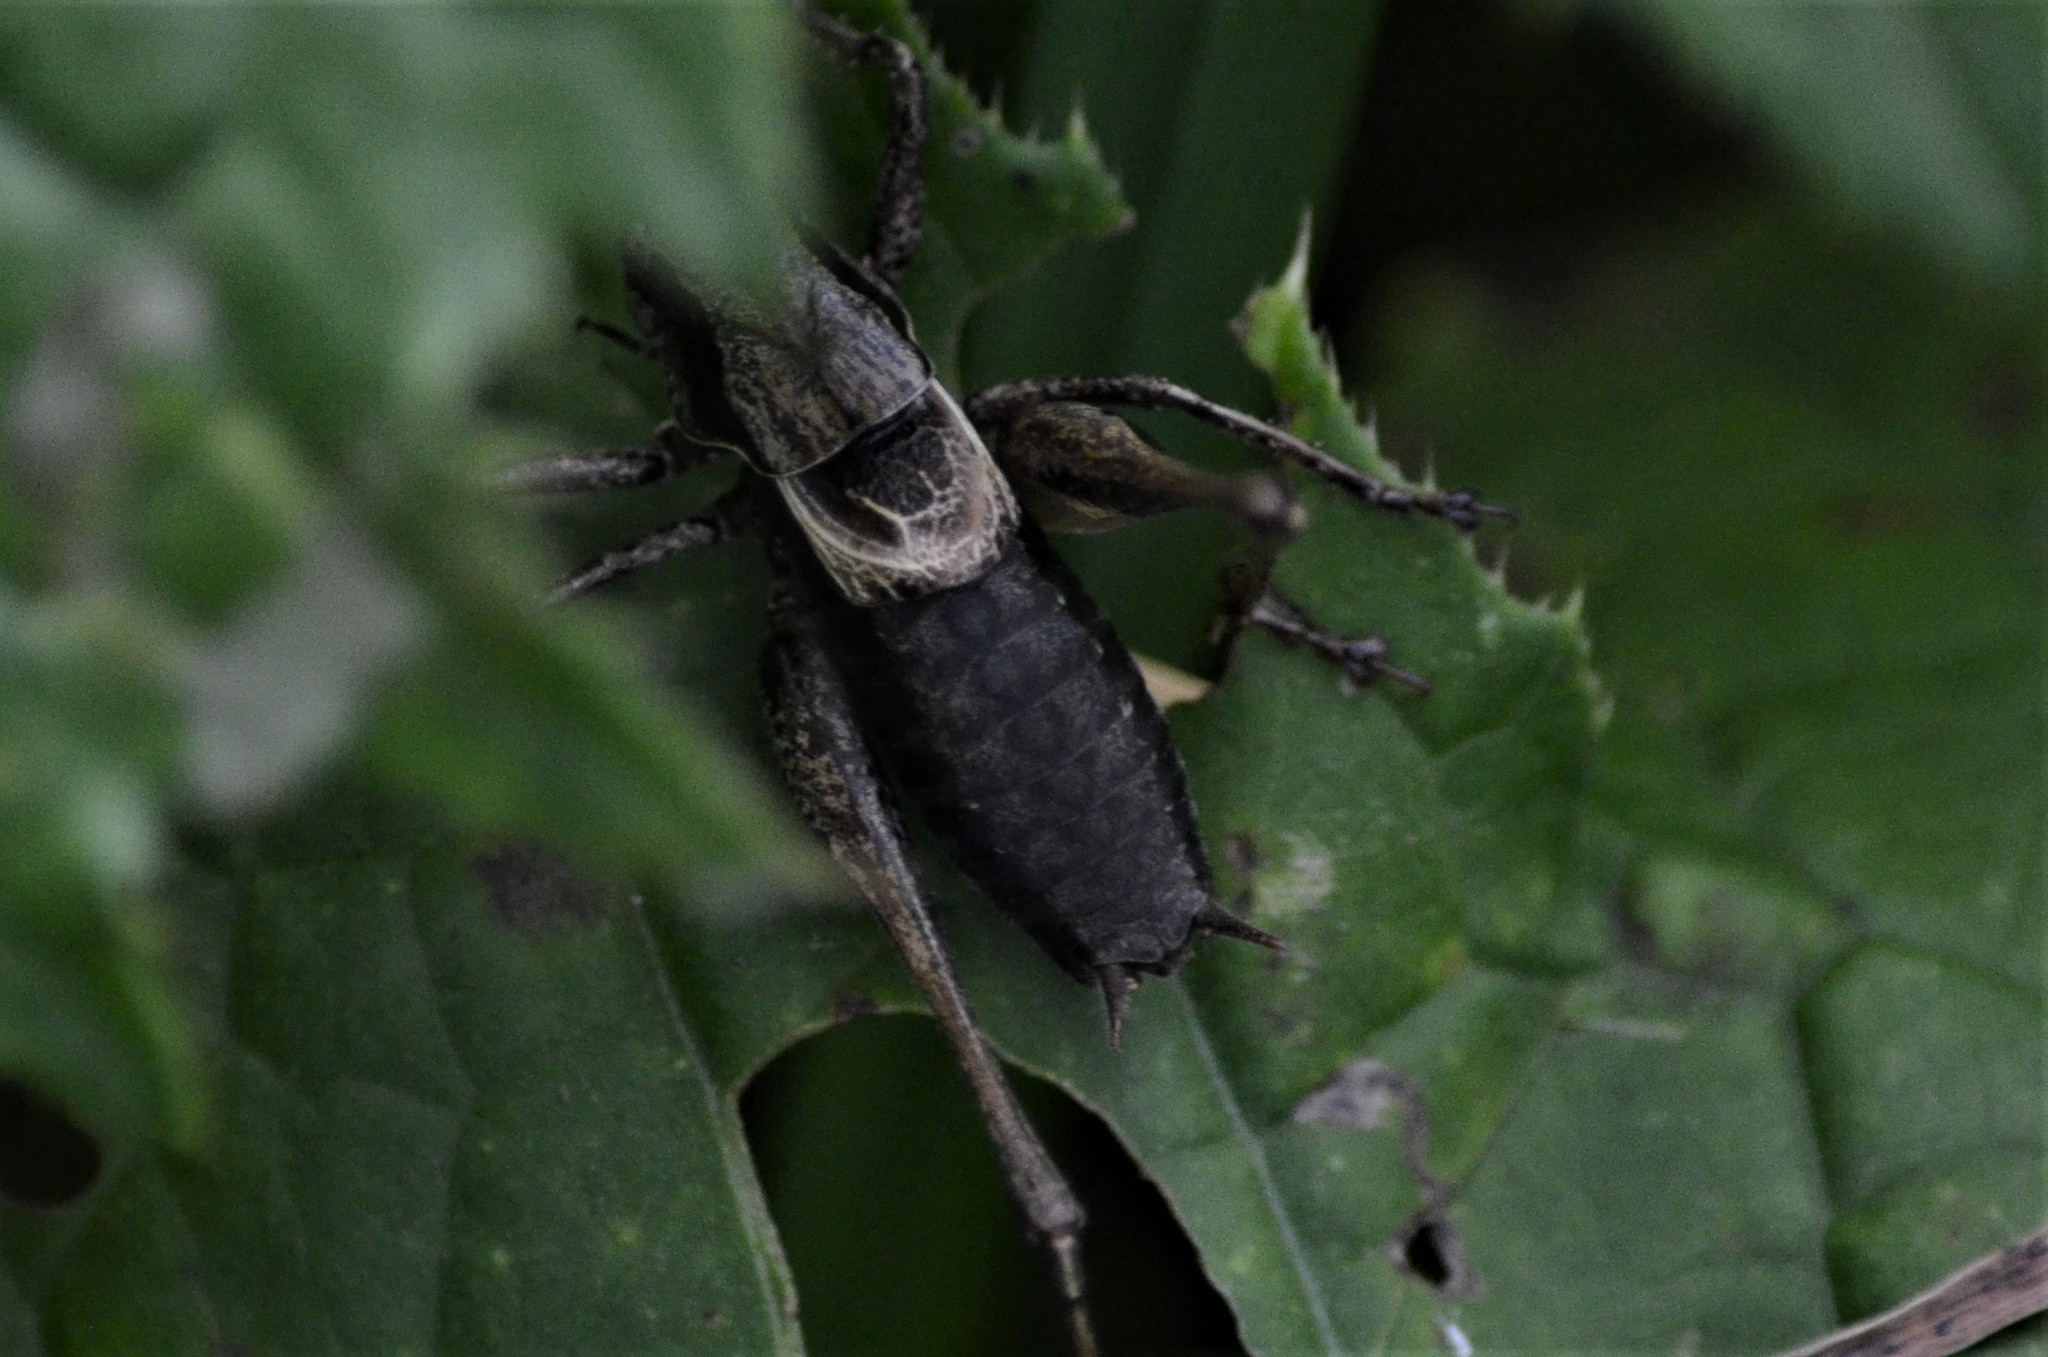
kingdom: Animalia
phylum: Arthropoda
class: Insecta
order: Orthoptera
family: Tettigoniidae
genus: Pholidoptera
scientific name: Pholidoptera griseoaptera
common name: Dark bush-cricket
